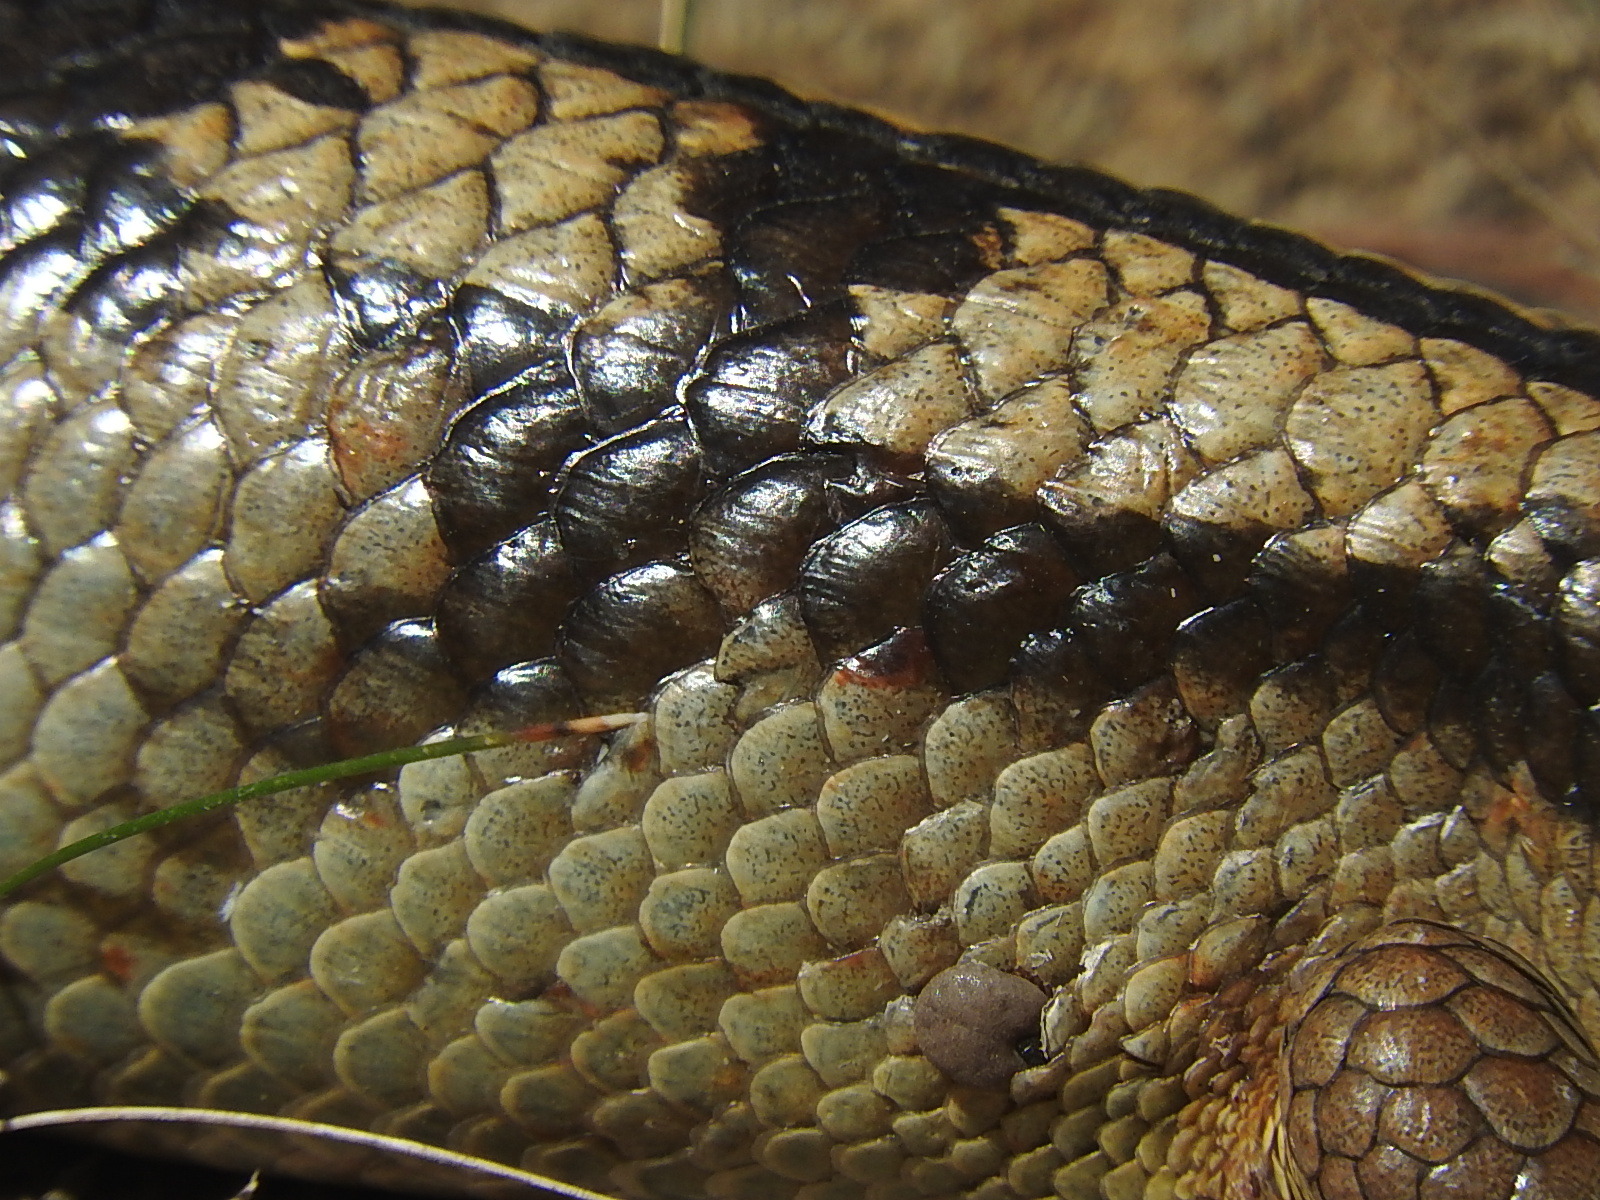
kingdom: Animalia
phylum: Arthropoda
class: Arachnida
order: Ixodida
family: Ixodidae
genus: Bothriocroton
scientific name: Bothriocroton hydrosauri
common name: Southern reptile tick
